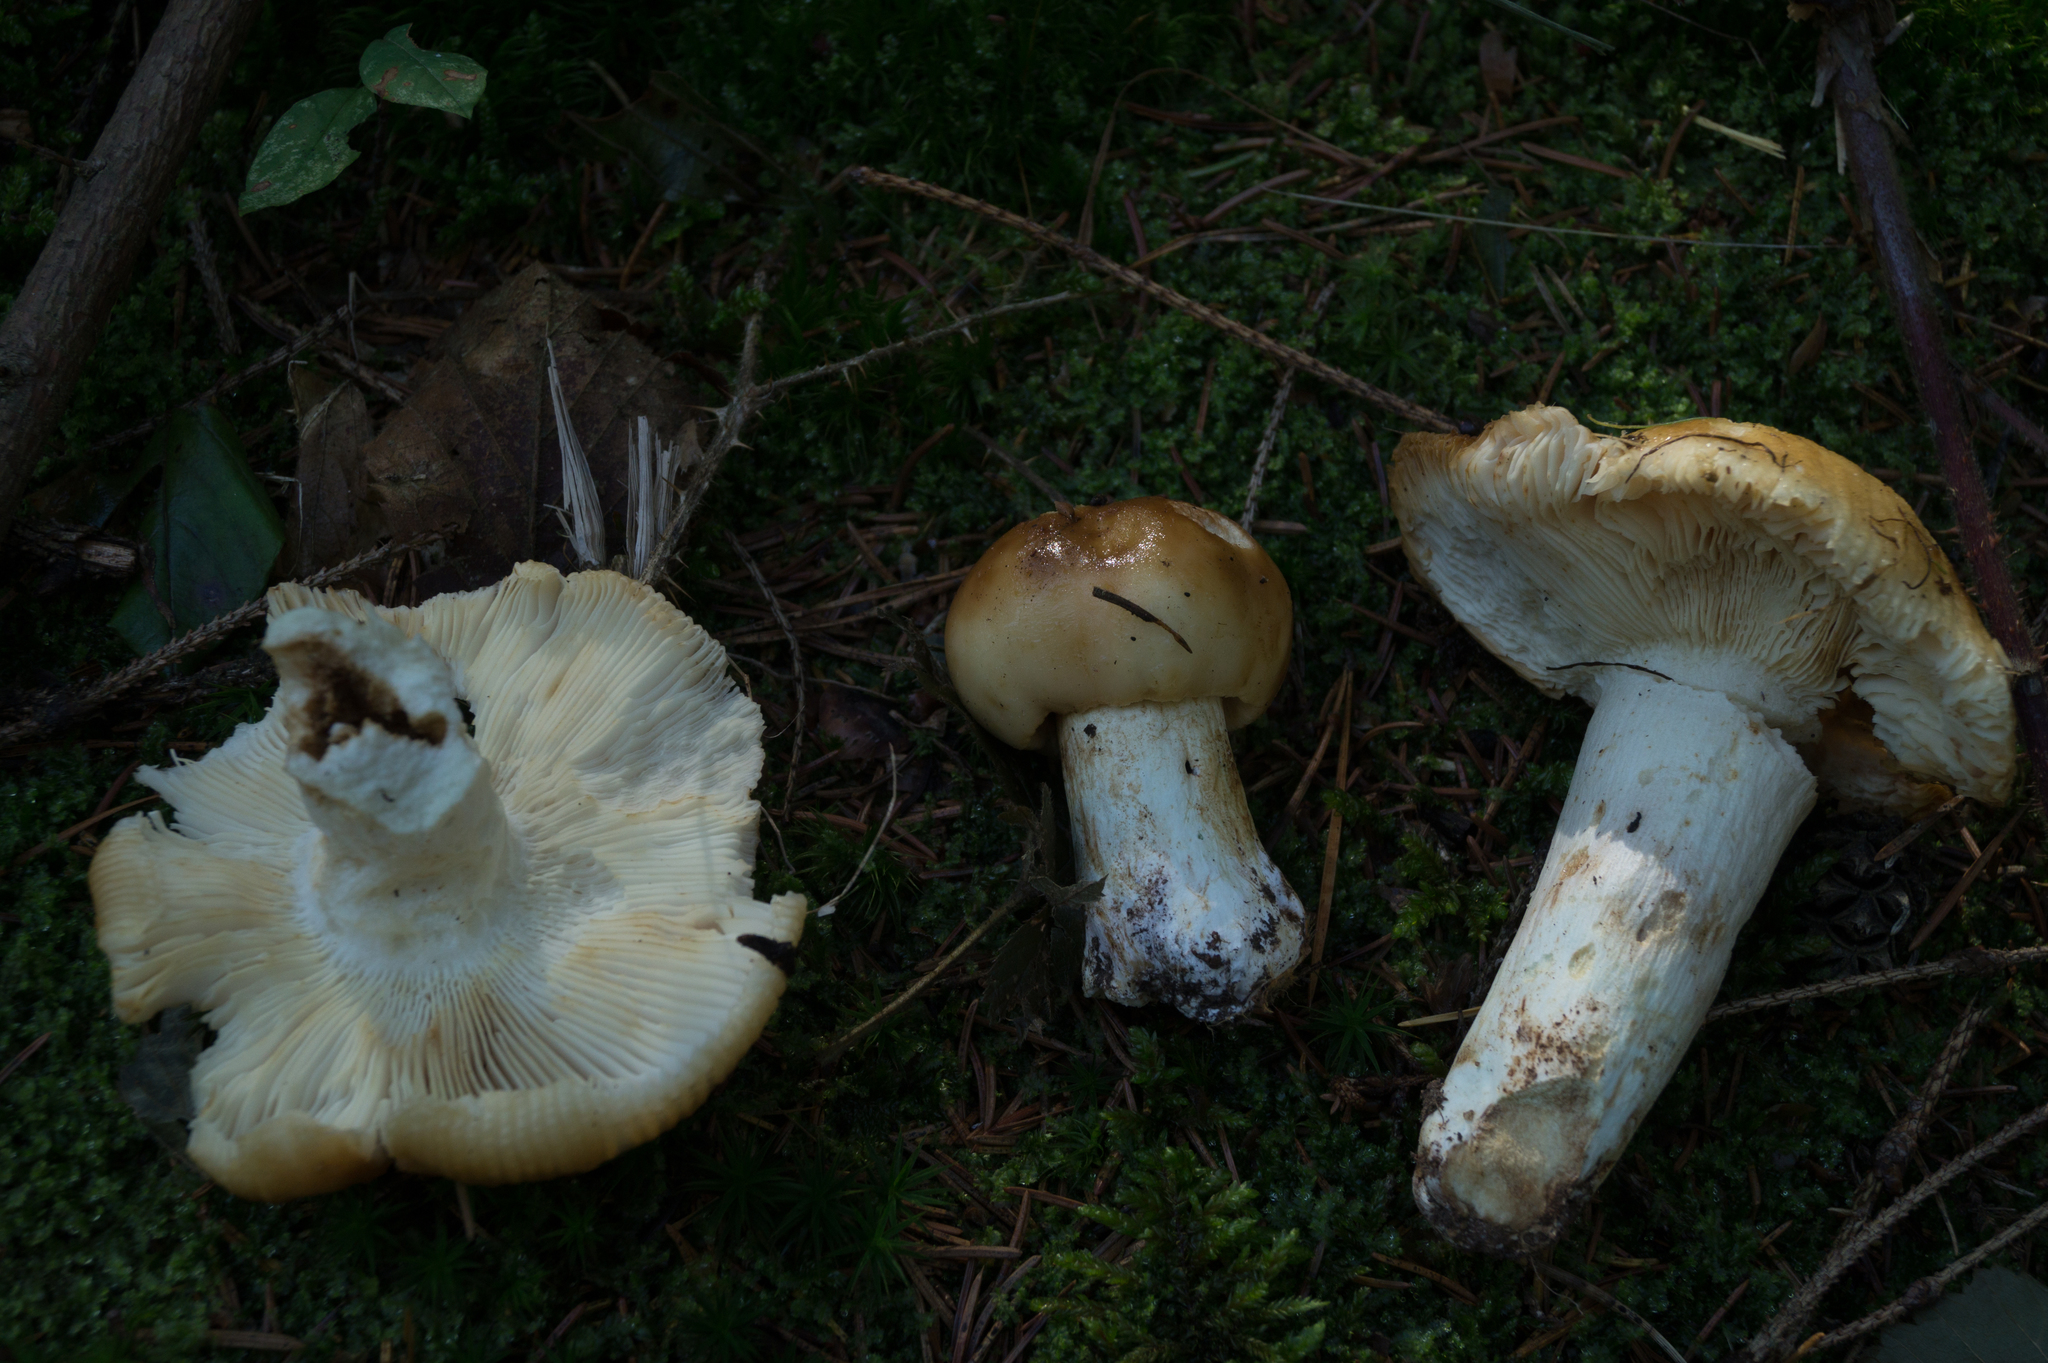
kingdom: Fungi
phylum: Basidiomycota
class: Agaricomycetes
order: Russulales
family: Russulaceae
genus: Russula
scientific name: Russula subfoetens
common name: Least stinking brittlegill
